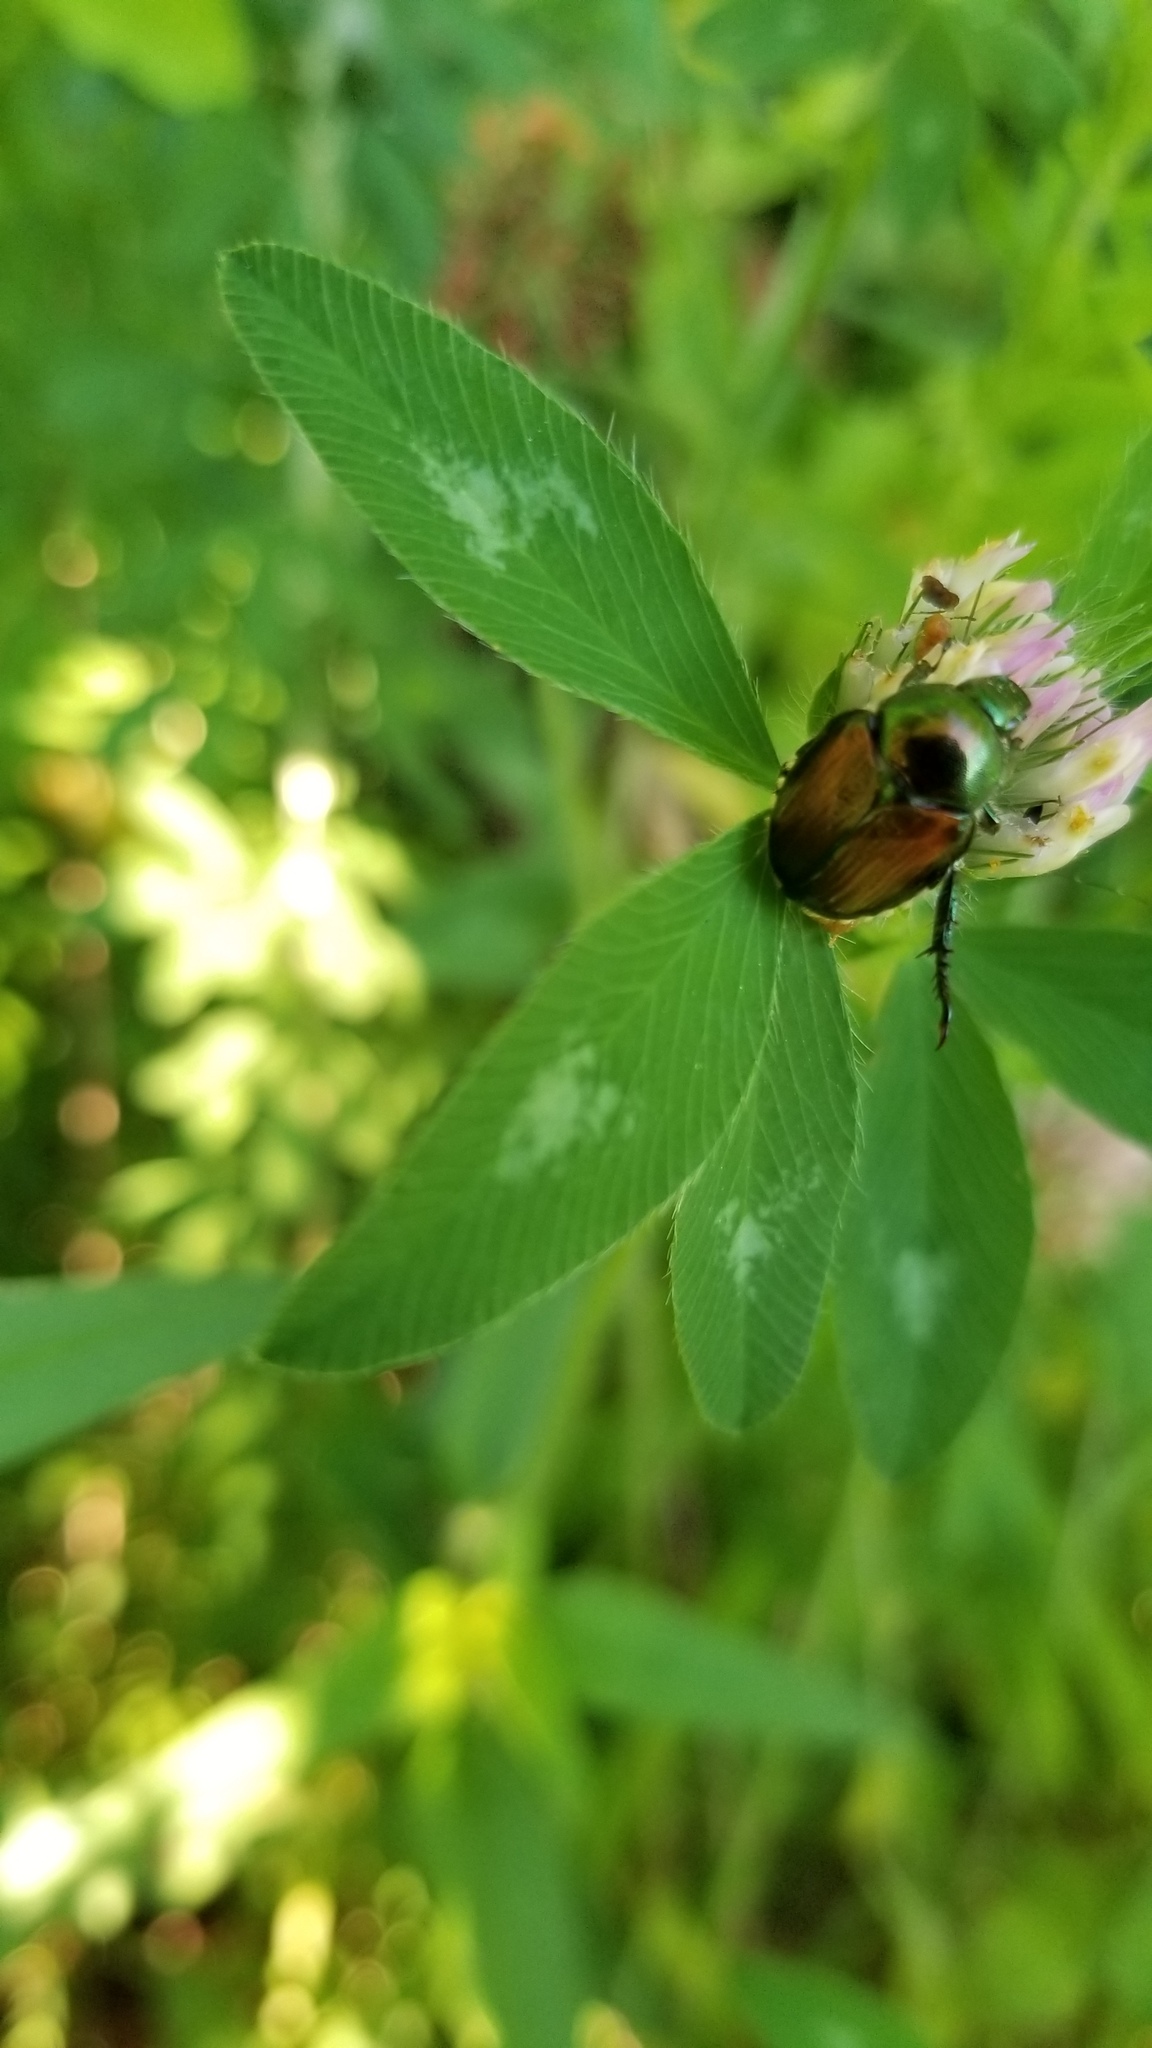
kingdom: Animalia
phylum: Arthropoda
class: Insecta
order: Coleoptera
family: Scarabaeidae
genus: Popillia
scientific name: Popillia japonica
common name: Japanese beetle
